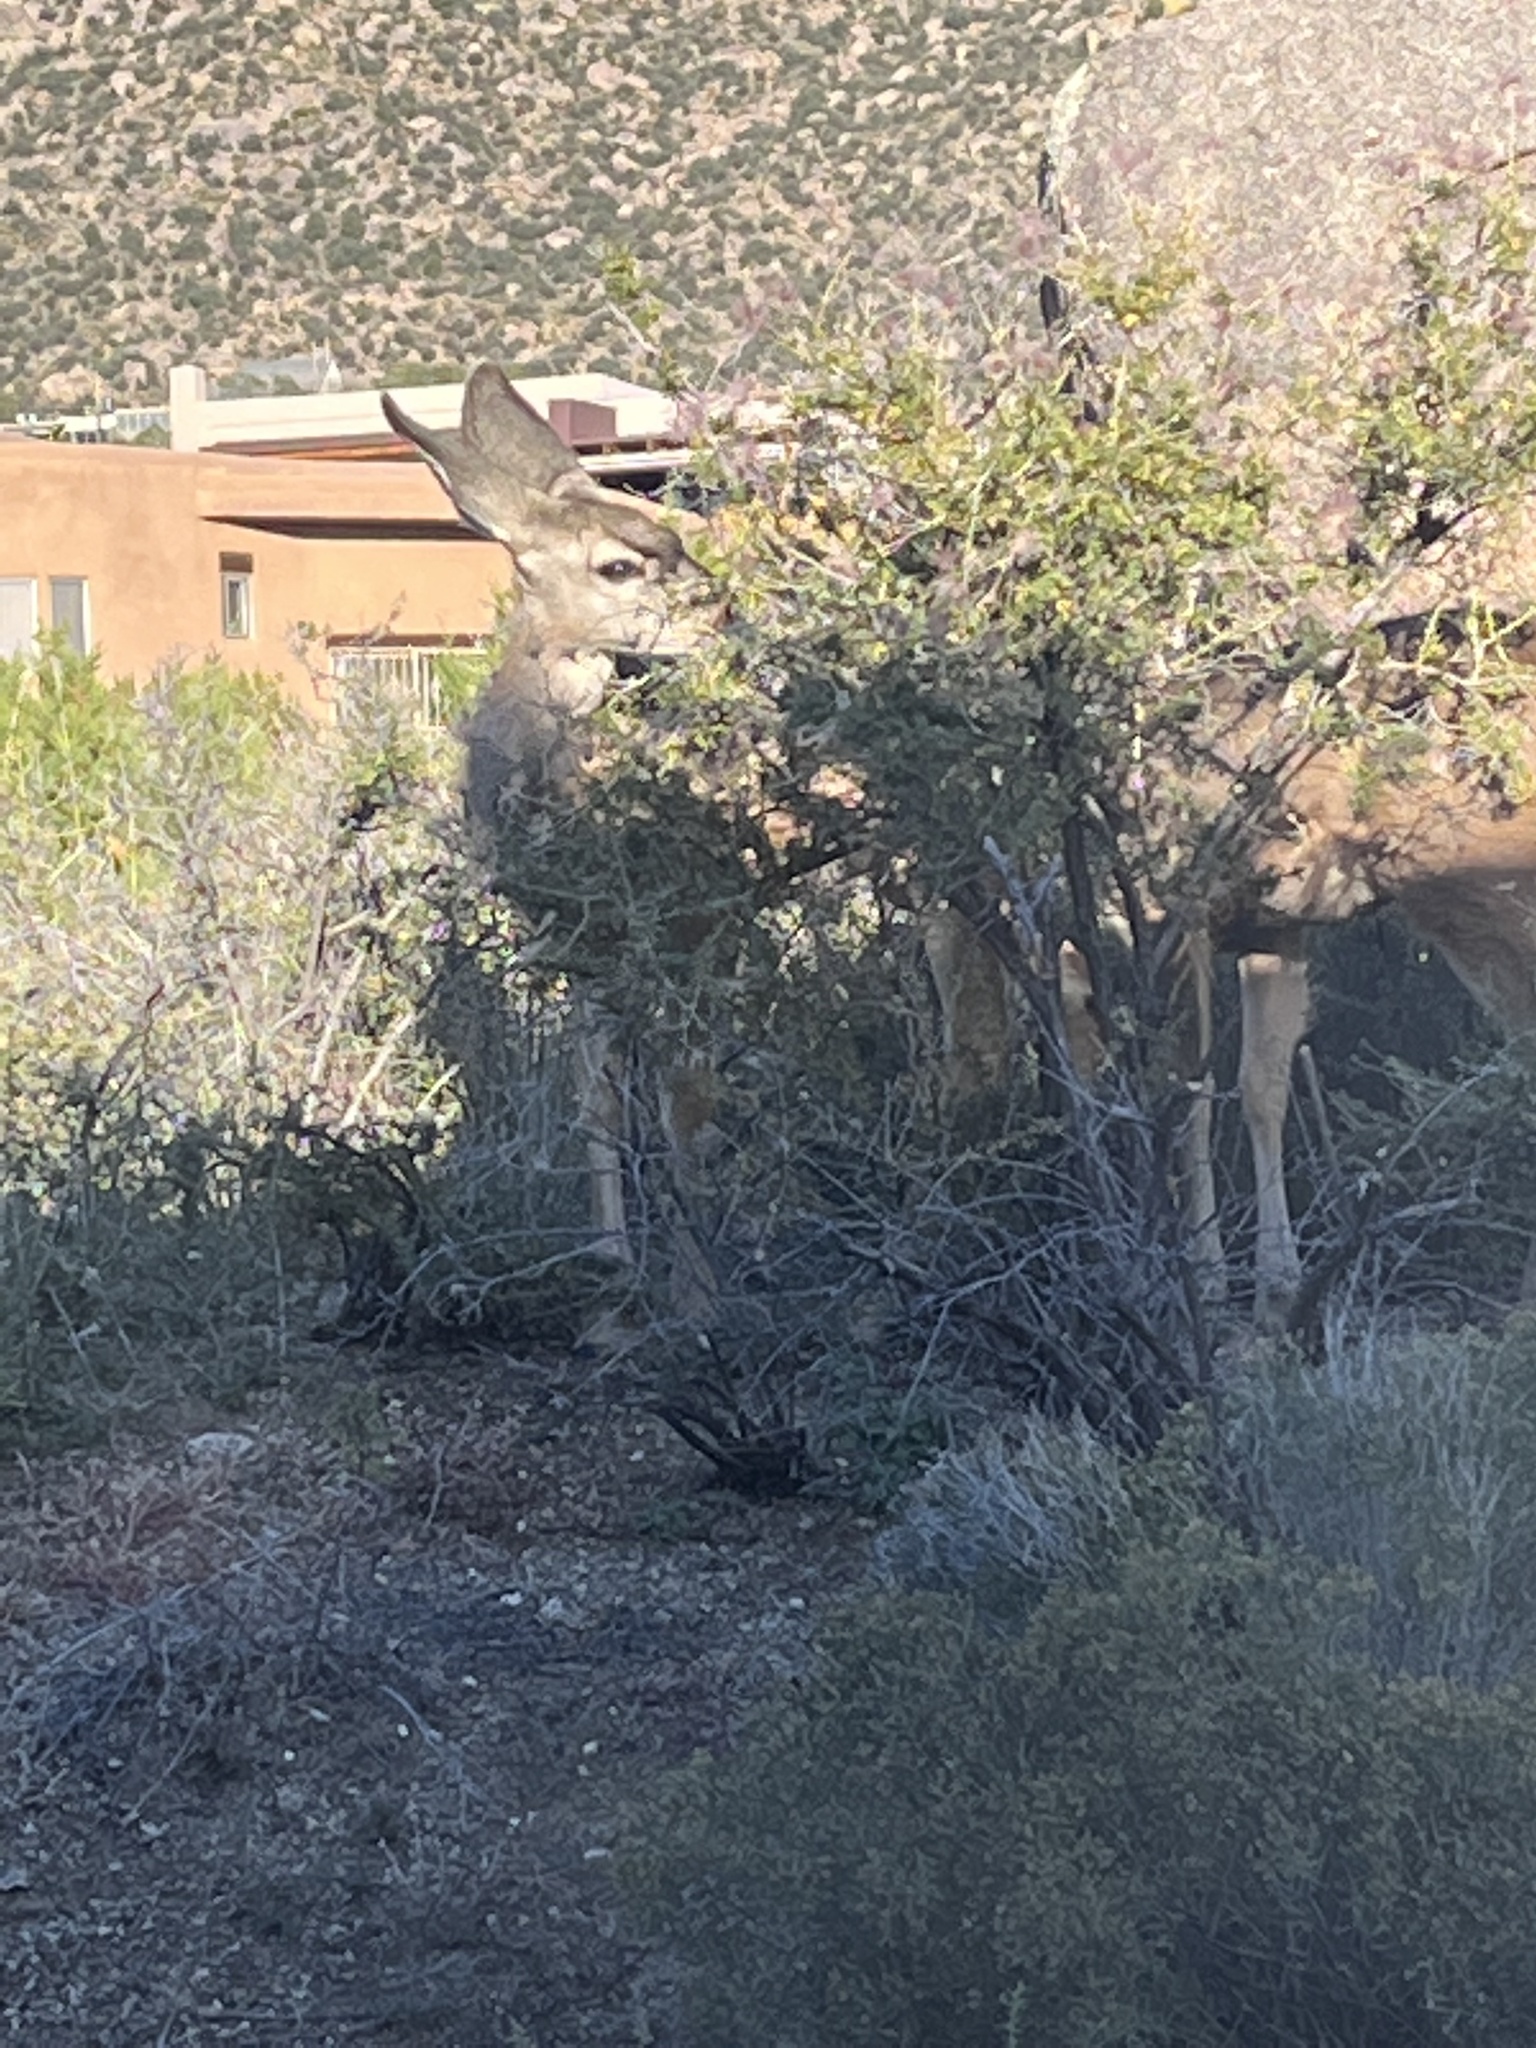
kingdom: Plantae
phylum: Tracheophyta
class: Magnoliopsida
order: Rosales
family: Rosaceae
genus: Fallugia
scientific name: Fallugia paradoxa
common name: Apache-plume
